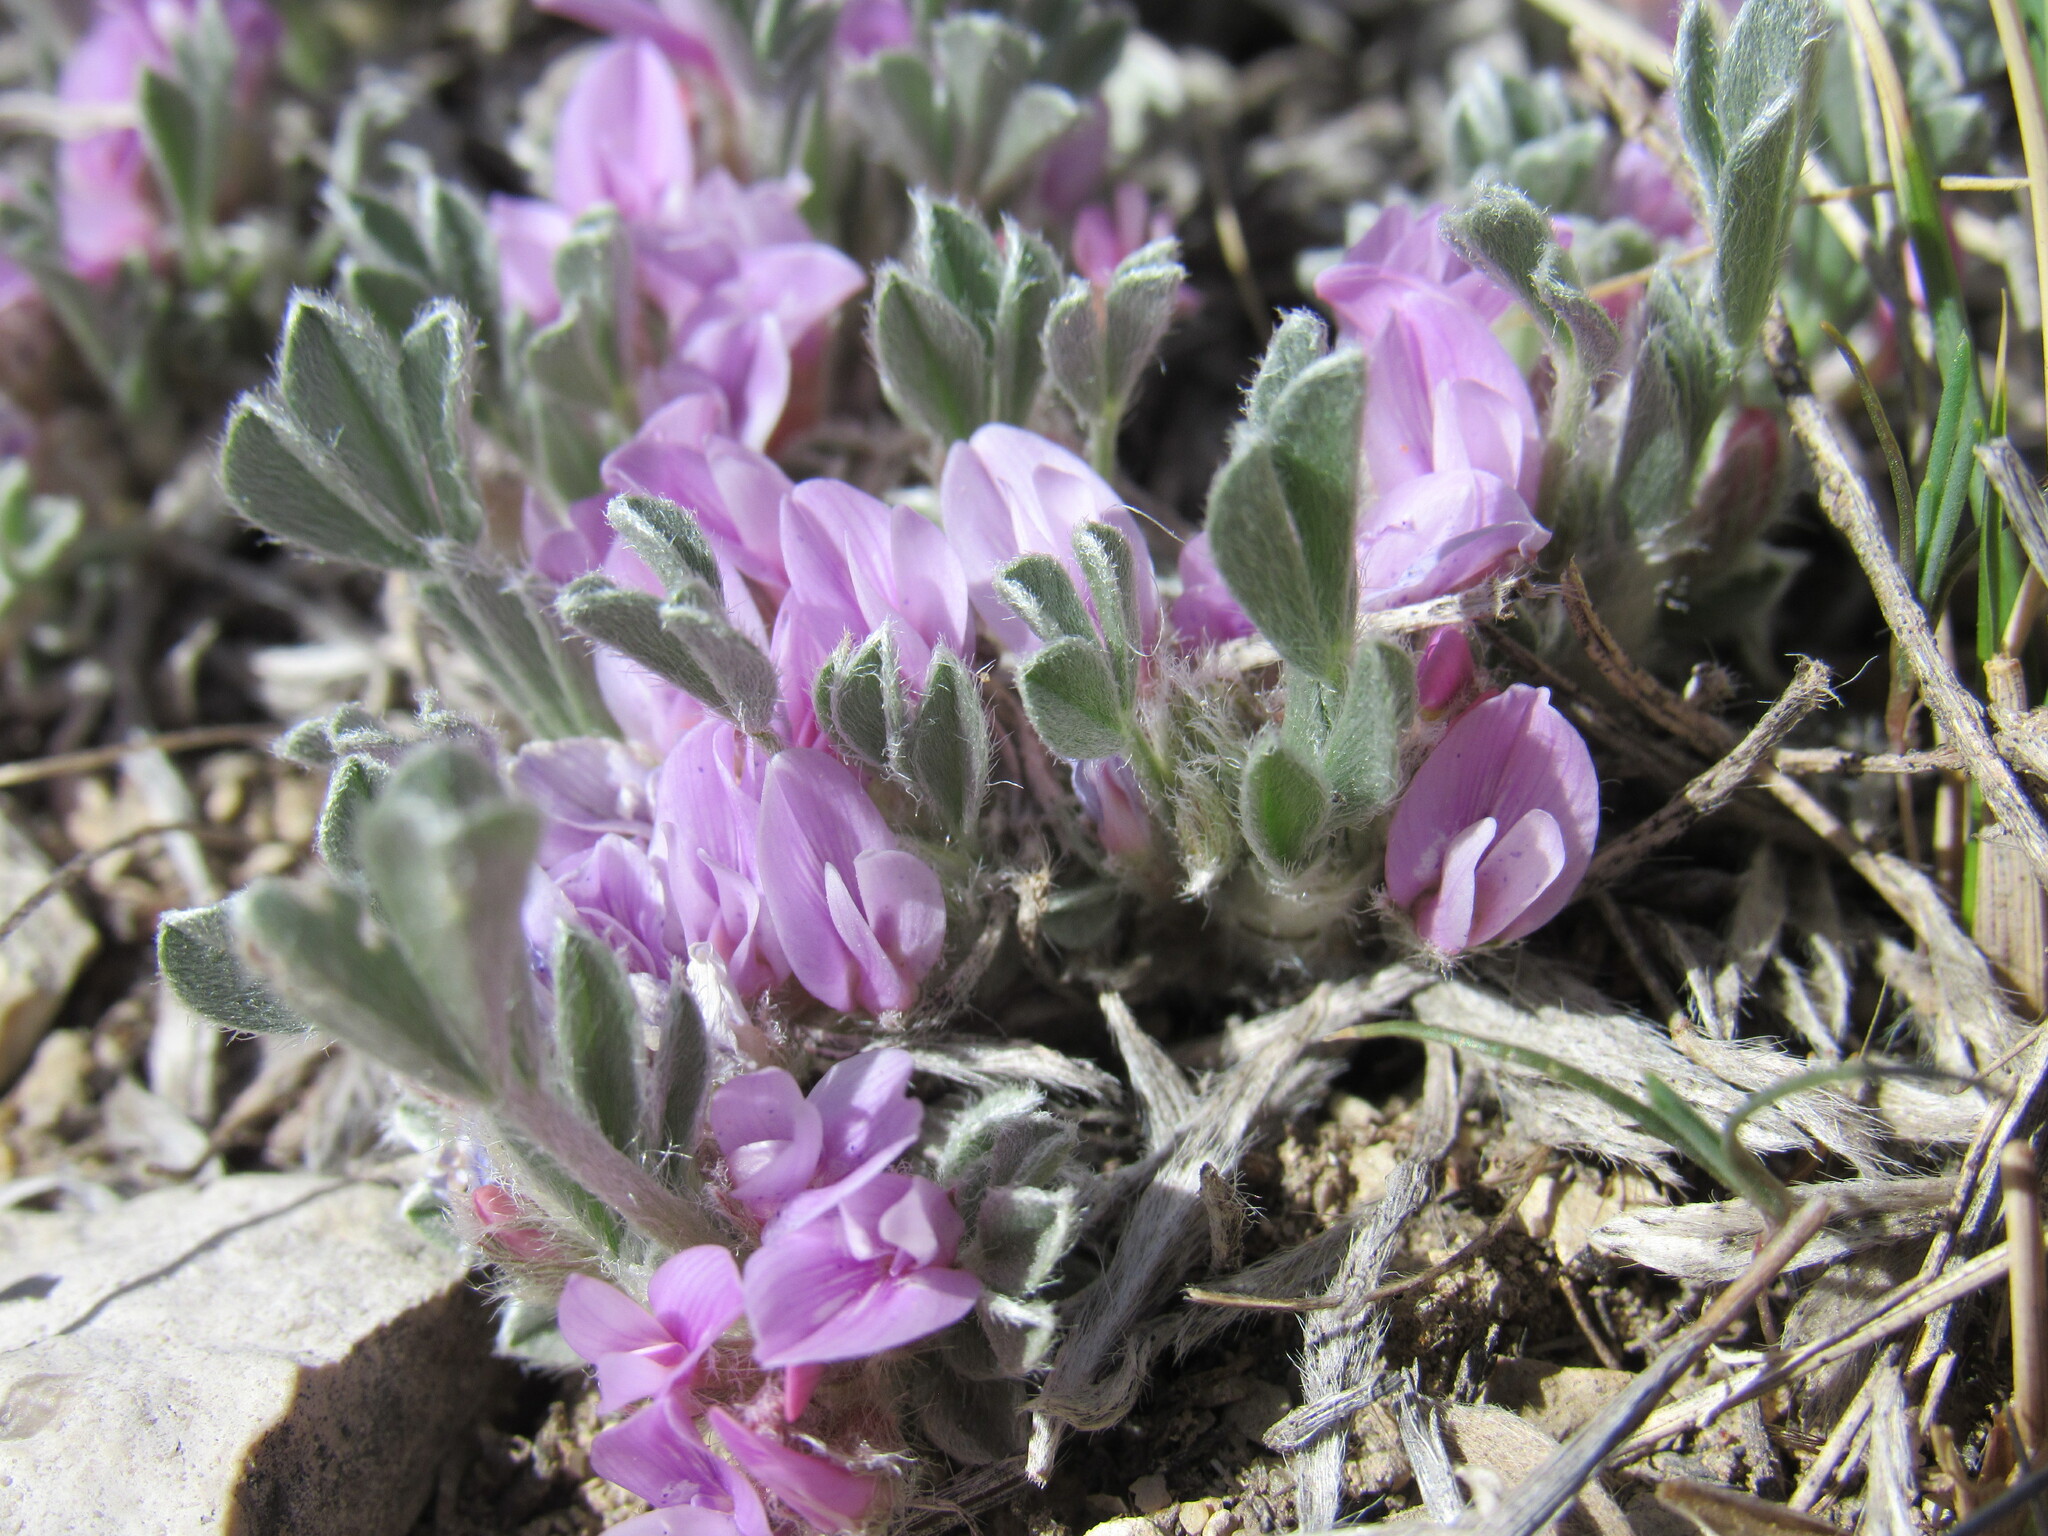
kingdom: Plantae
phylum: Tracheophyta
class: Magnoliopsida
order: Fabales
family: Fabaceae
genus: Astragalus
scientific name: Astragalus tridactylicus
